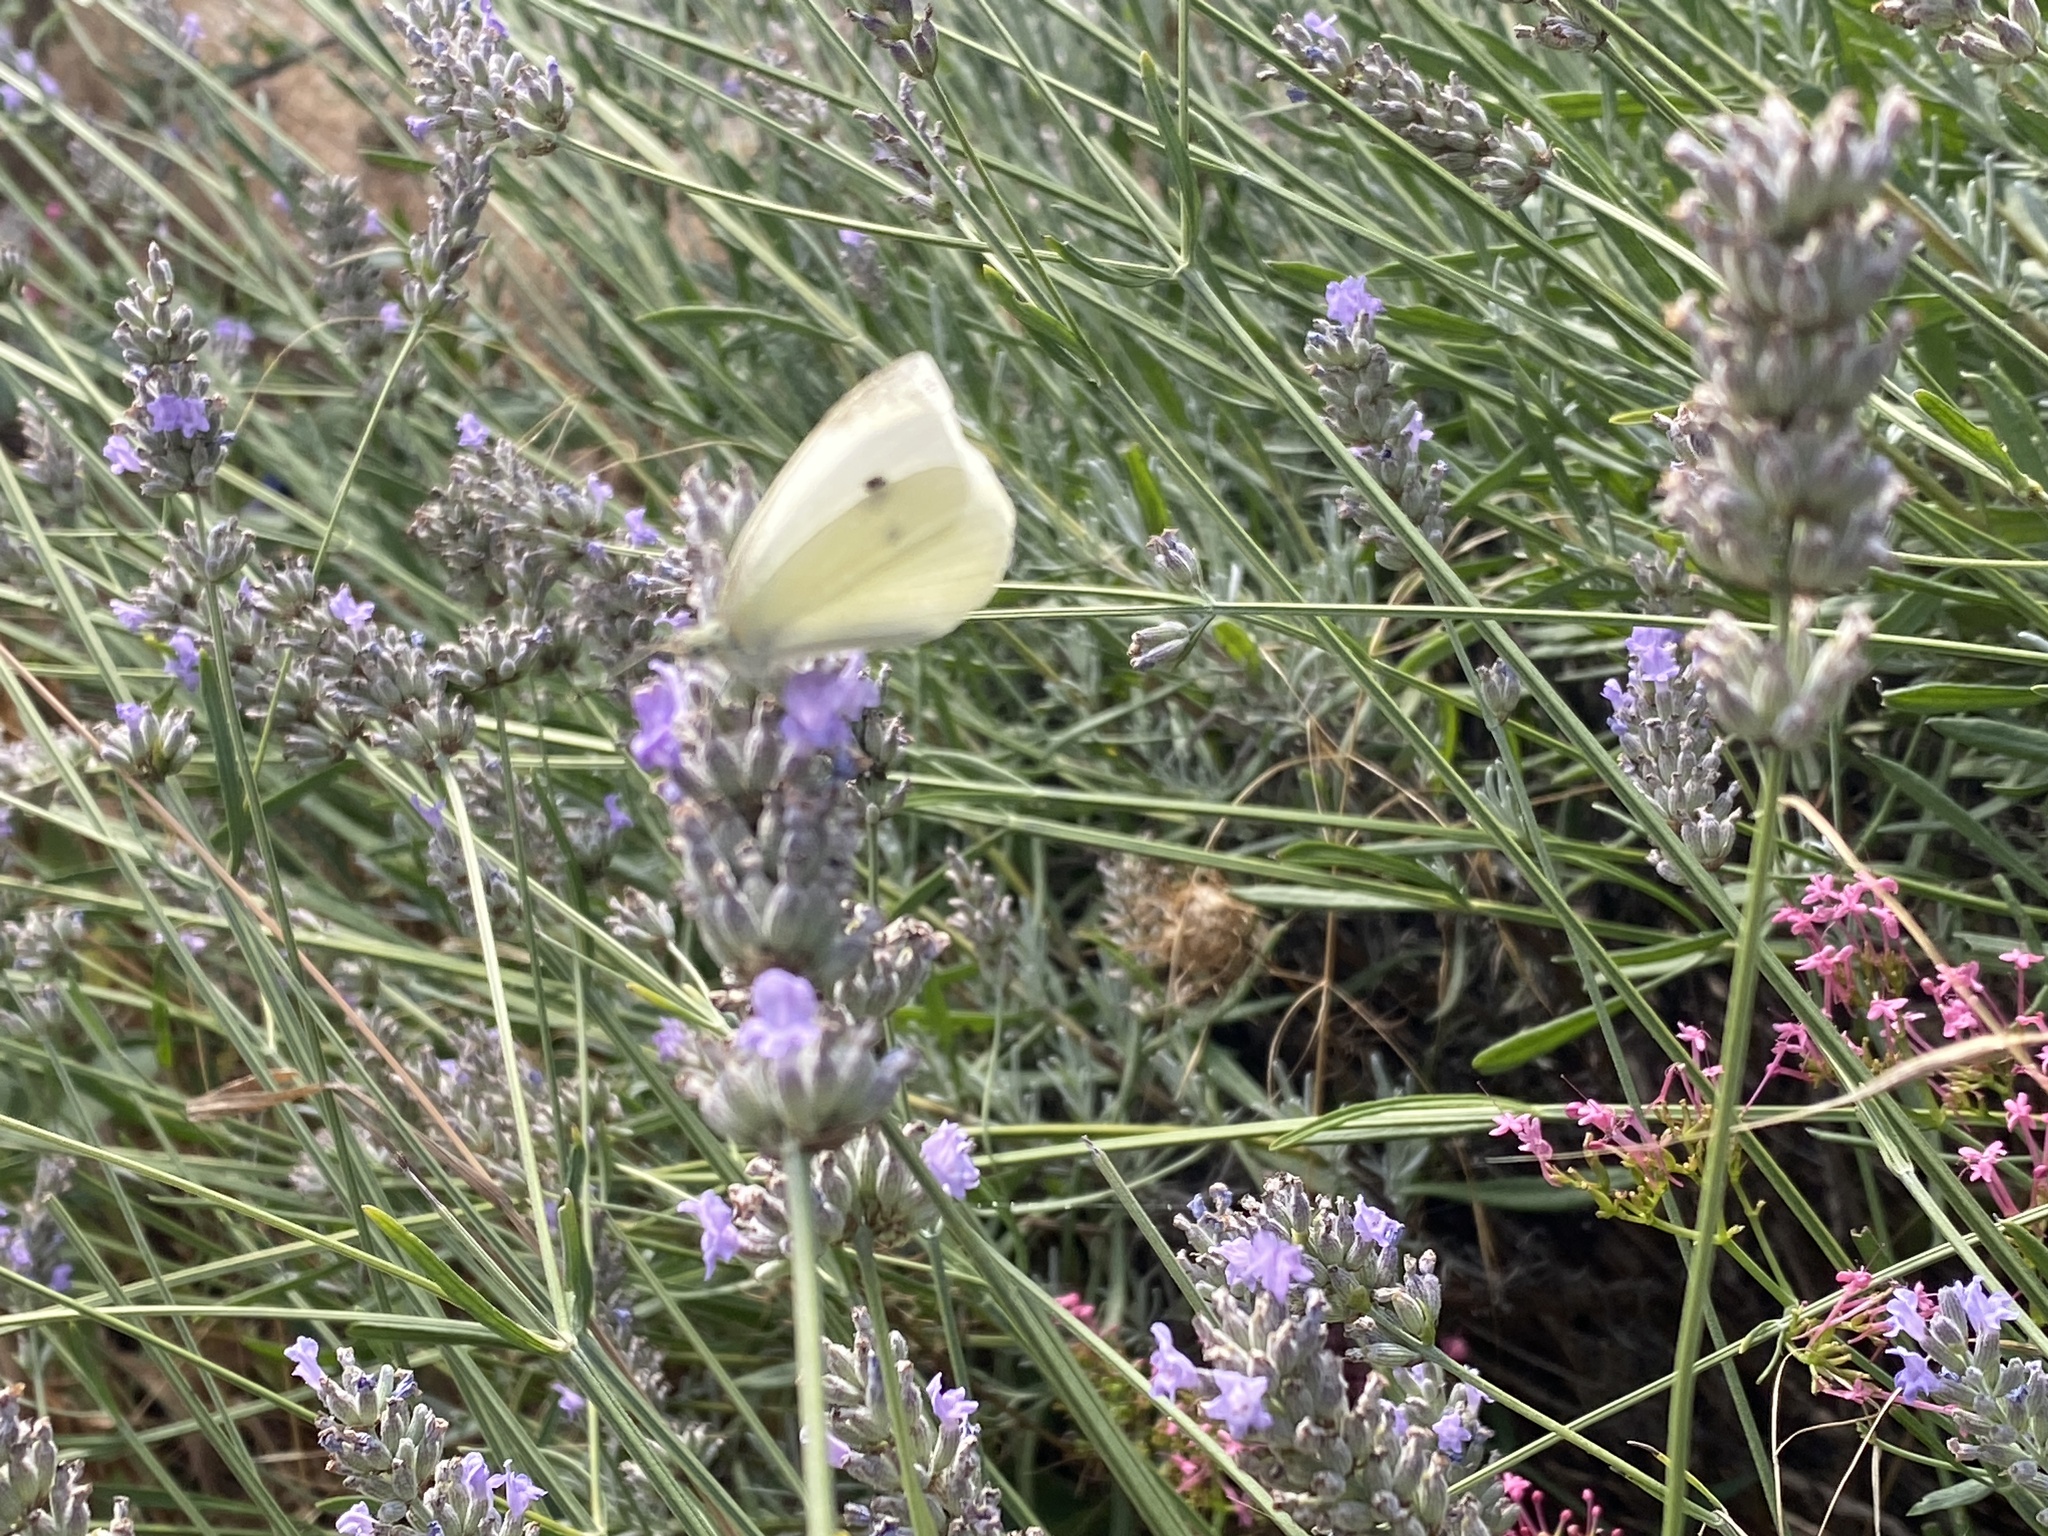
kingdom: Animalia
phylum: Arthropoda
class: Insecta
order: Lepidoptera
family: Pieridae
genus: Pieris
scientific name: Pieris rapae
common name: Small white
